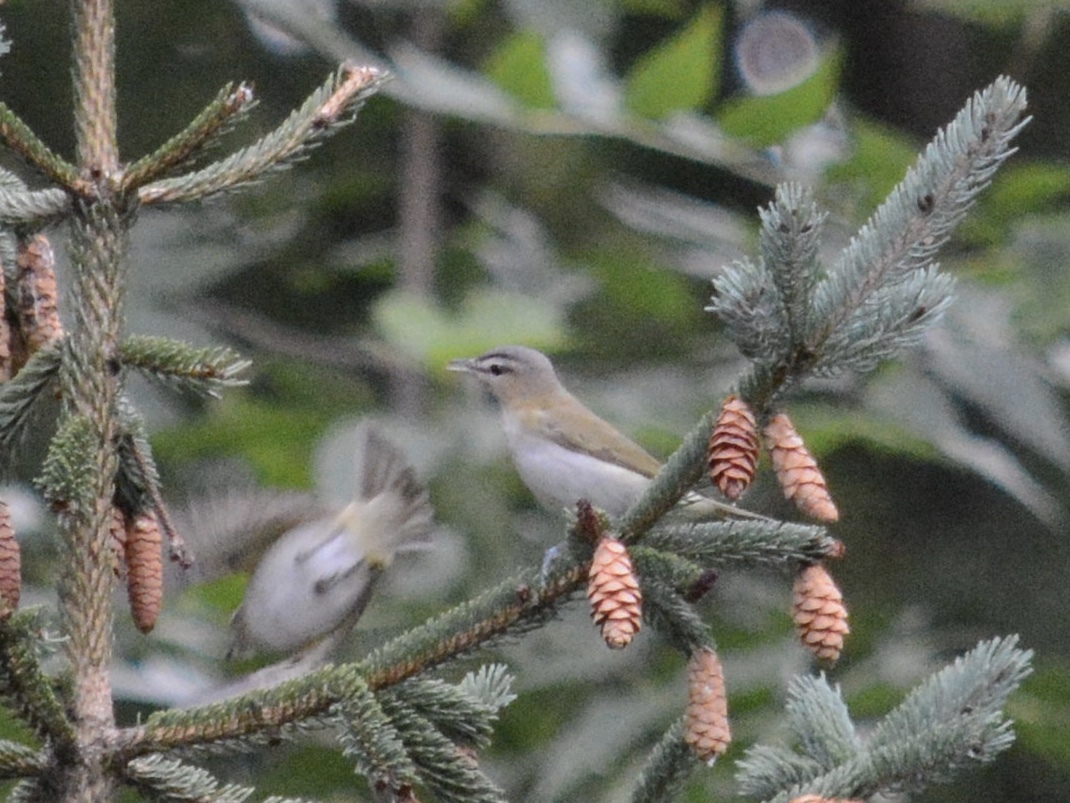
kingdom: Animalia
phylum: Chordata
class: Aves
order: Passeriformes
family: Vireonidae
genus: Vireo
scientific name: Vireo olivaceus
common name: Red-eyed vireo
